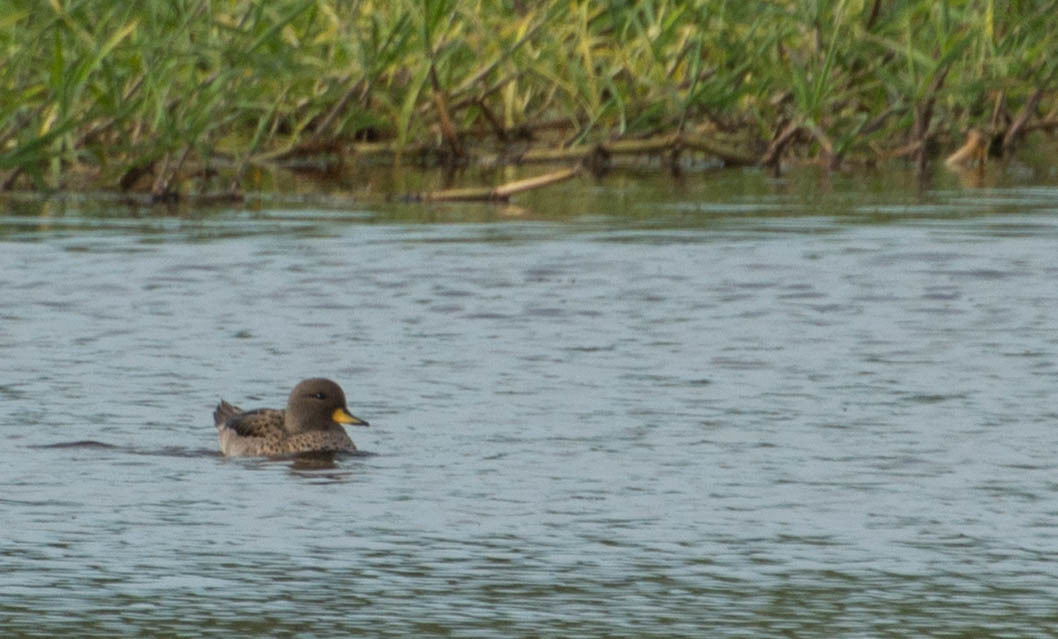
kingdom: Animalia
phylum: Chordata
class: Aves
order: Anseriformes
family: Anatidae
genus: Anas
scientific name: Anas flavirostris
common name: Yellow-billed teal
